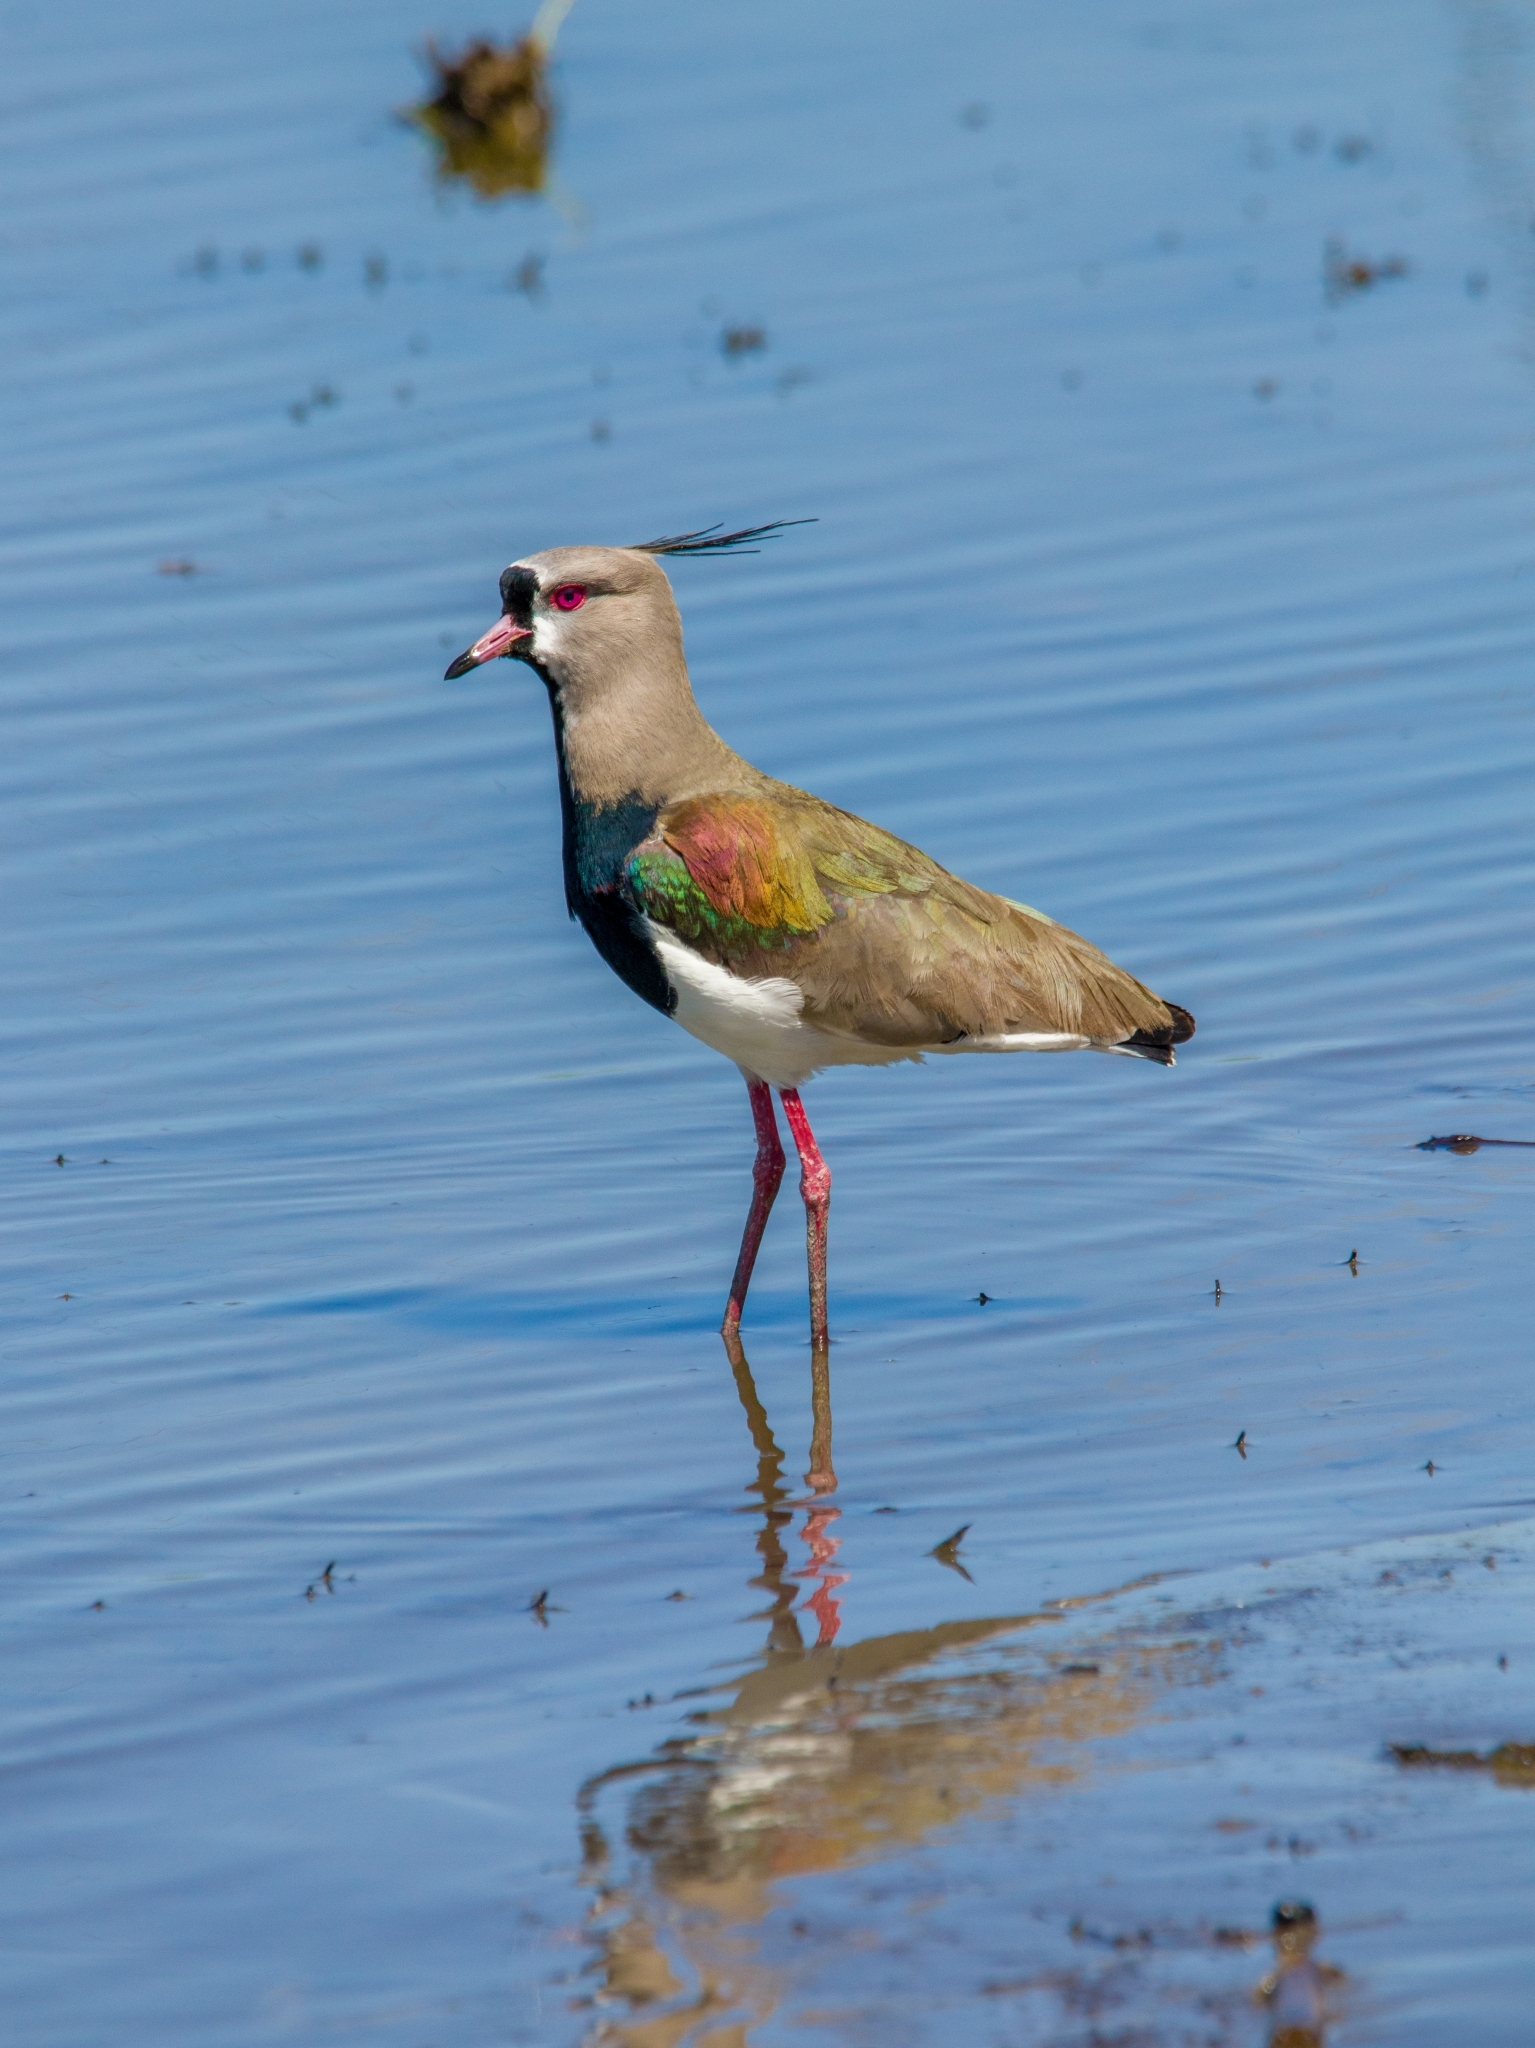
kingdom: Animalia
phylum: Chordata
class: Aves
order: Charadriiformes
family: Charadriidae
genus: Vanellus
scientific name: Vanellus chilensis
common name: Southern lapwing
